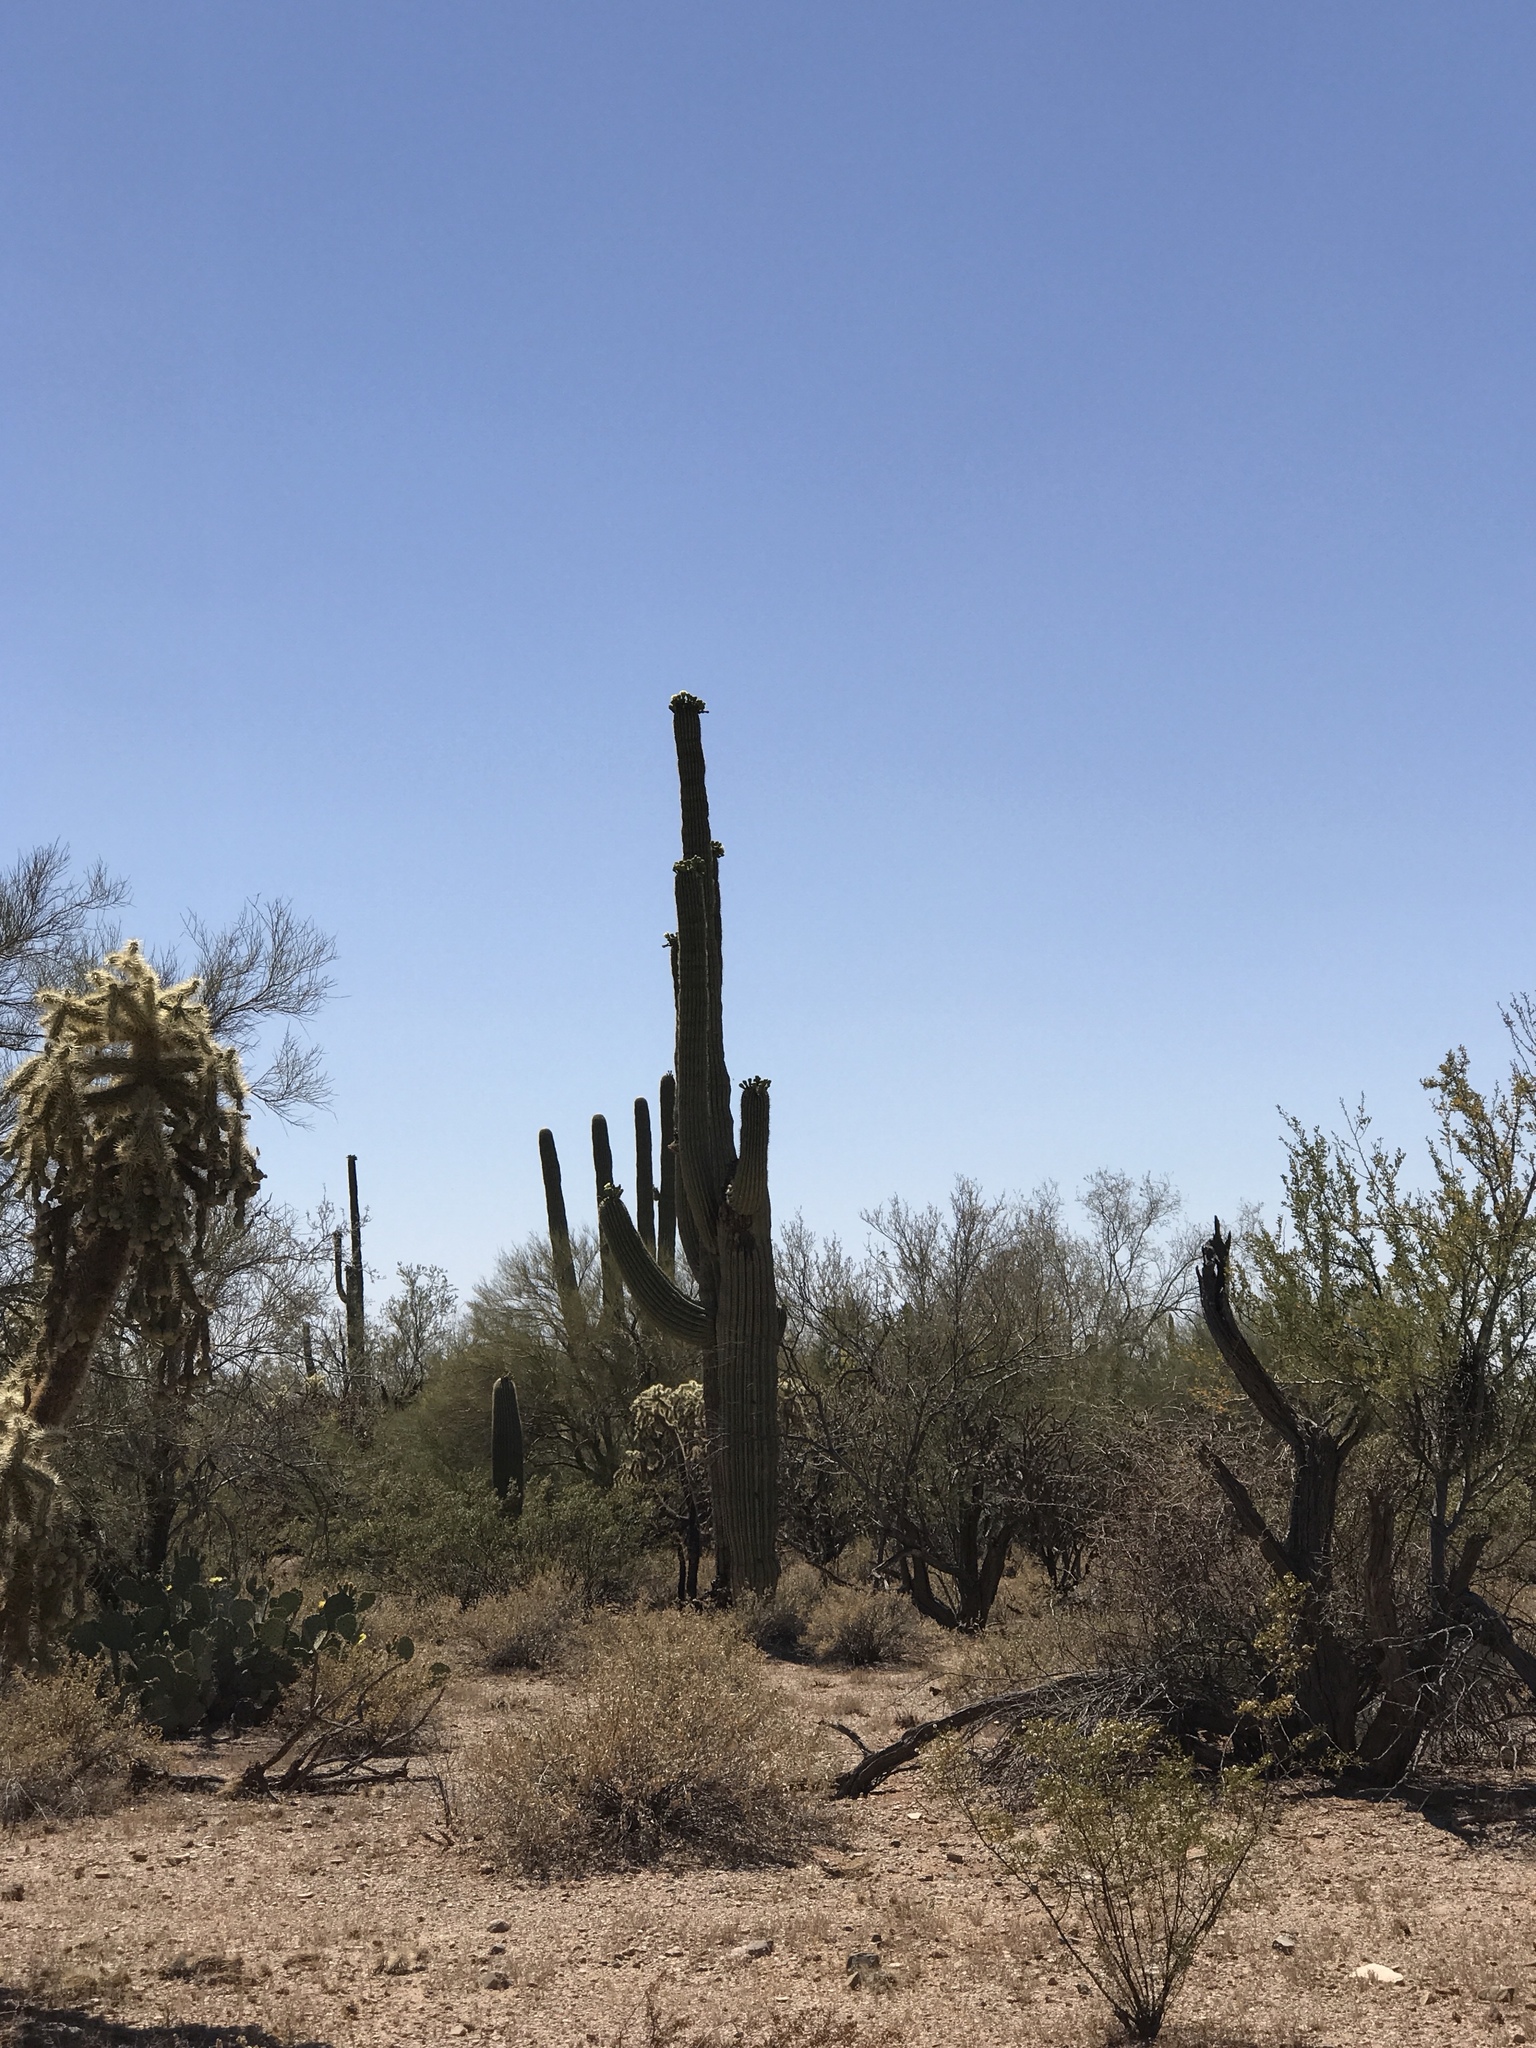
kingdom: Plantae
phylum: Tracheophyta
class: Magnoliopsida
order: Caryophyllales
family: Cactaceae
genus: Carnegiea
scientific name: Carnegiea gigantea
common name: Saguaro
